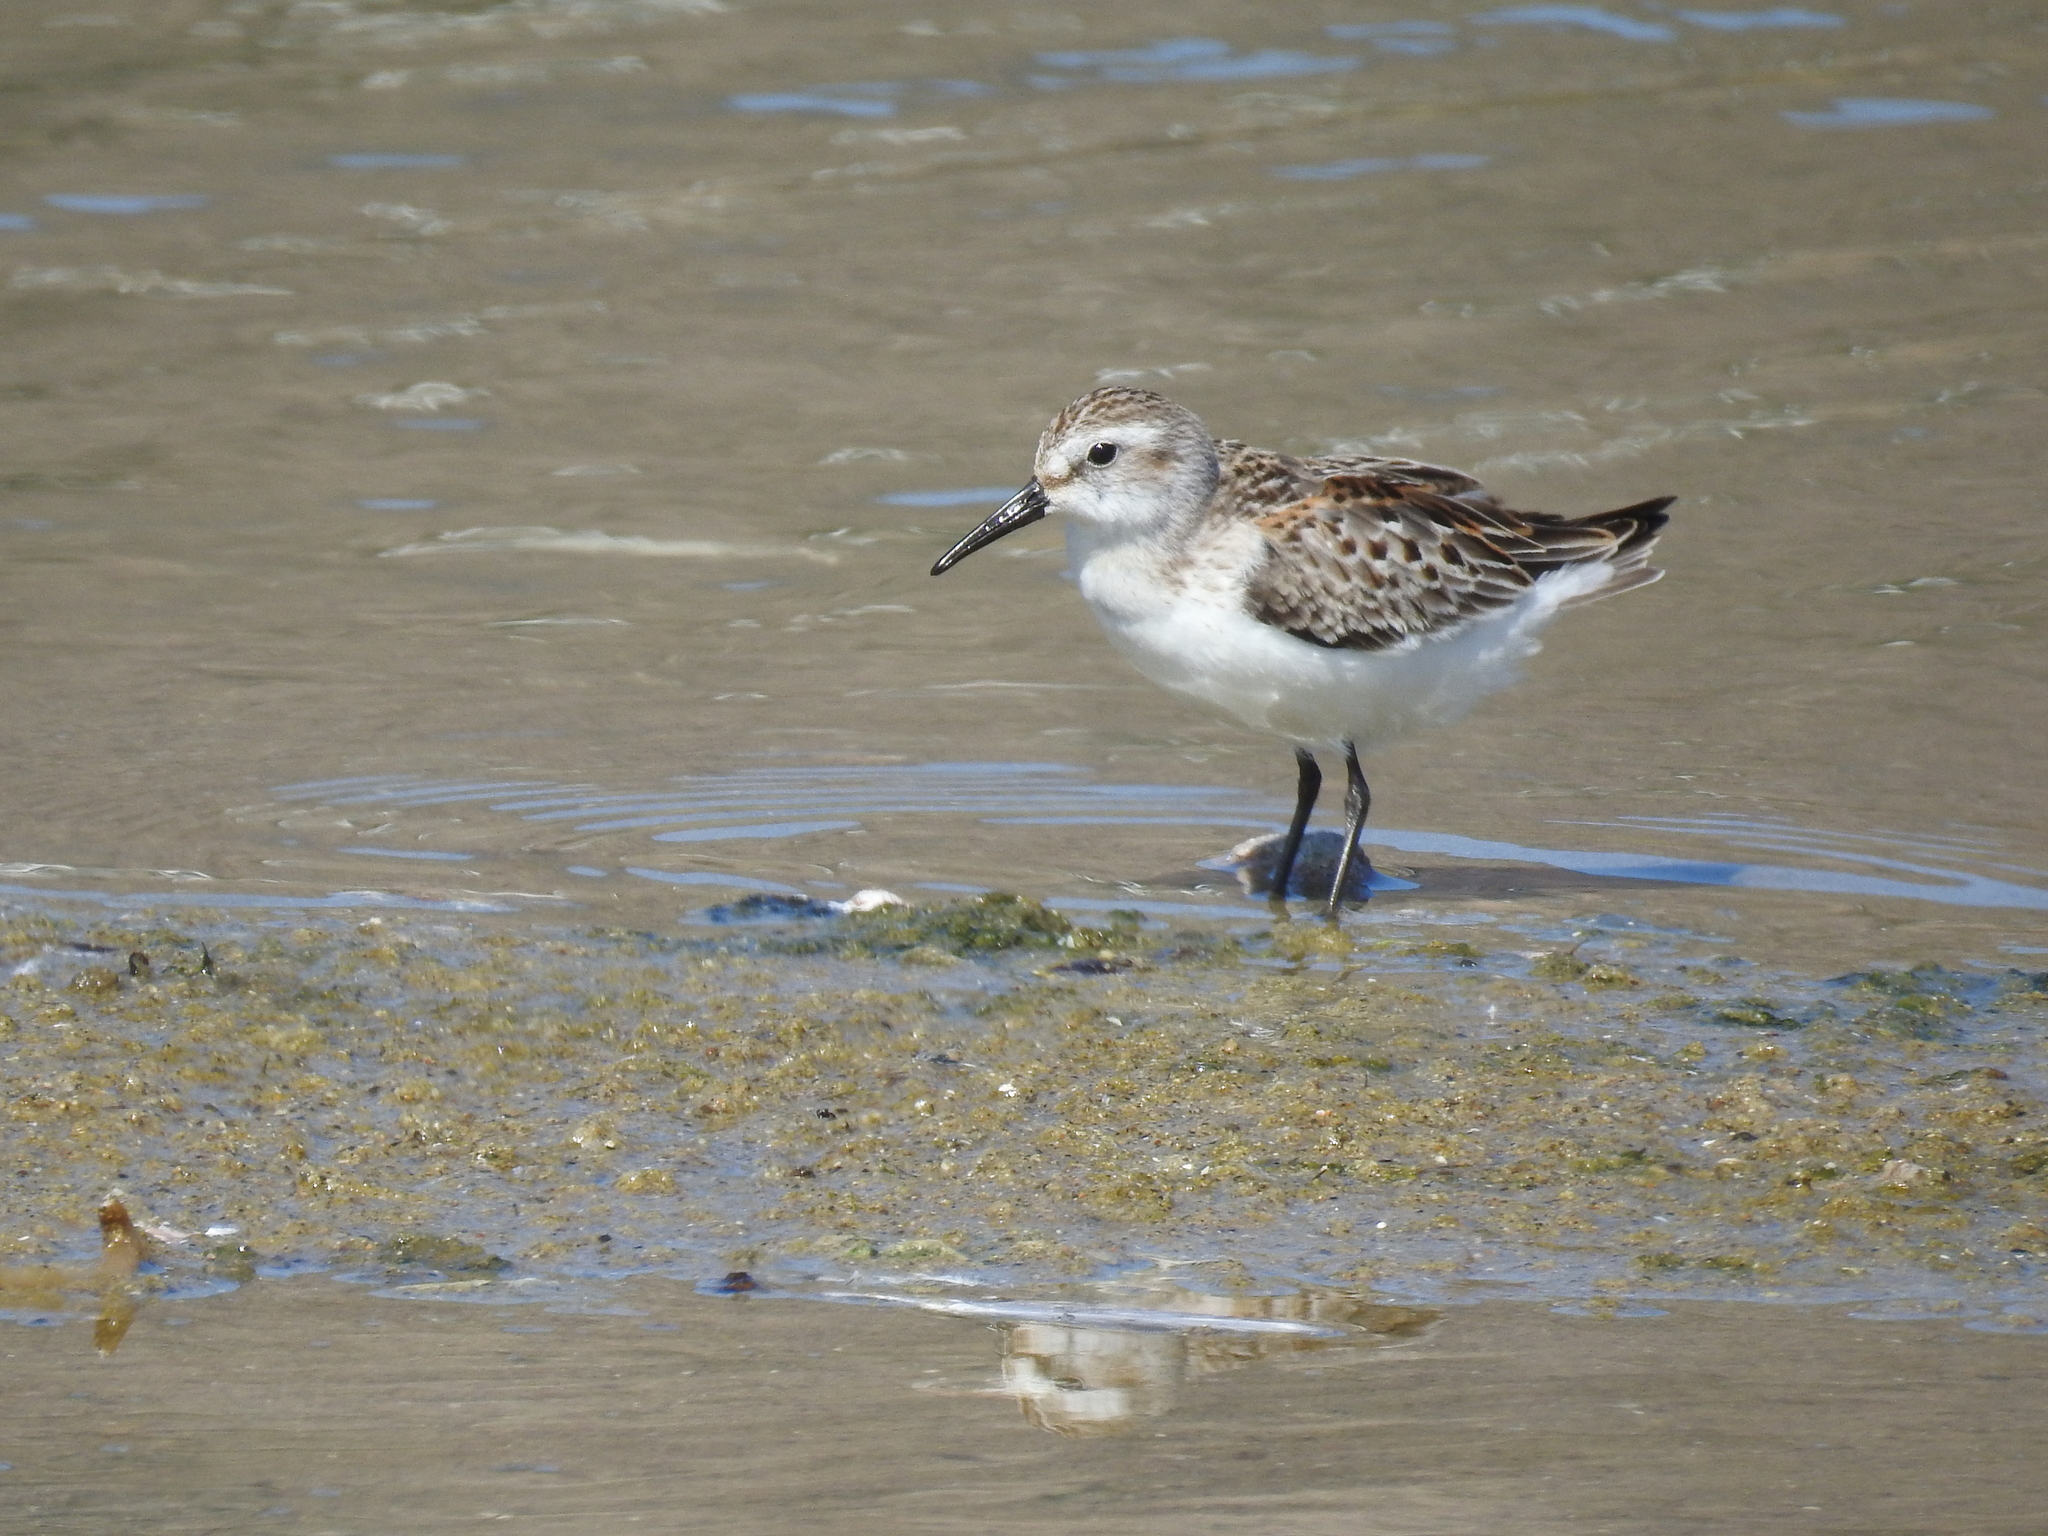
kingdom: Animalia
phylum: Chordata
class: Aves
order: Charadriiformes
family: Scolopacidae
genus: Calidris
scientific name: Calidris mauri
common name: Western sandpiper
